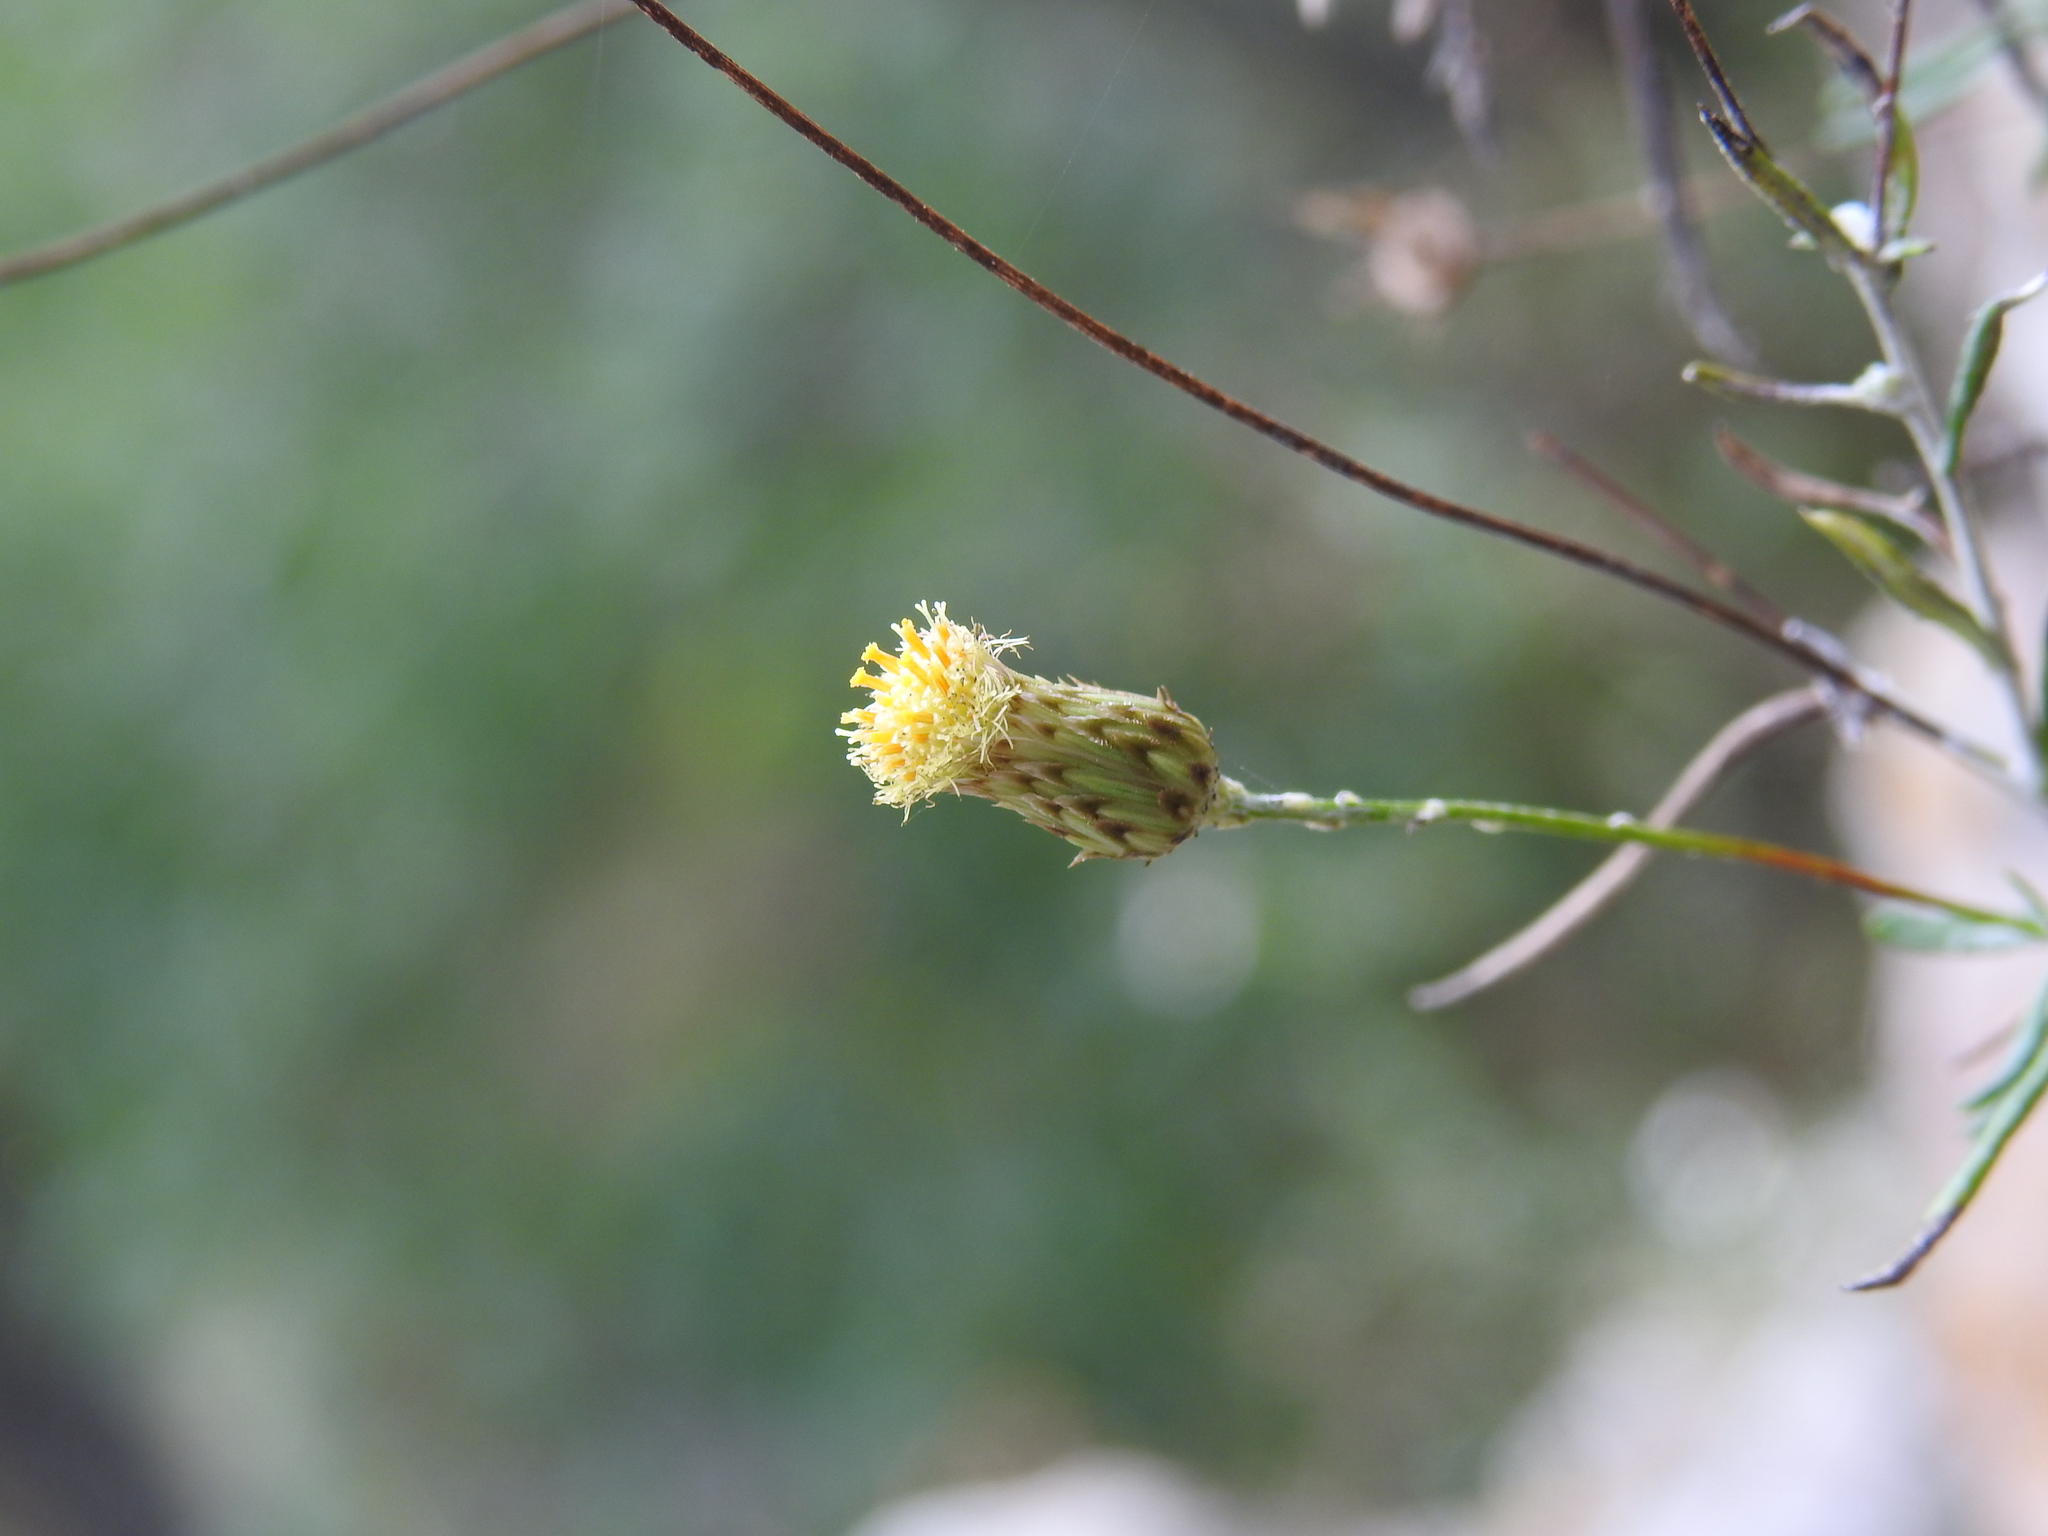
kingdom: Plantae
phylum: Tracheophyta
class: Magnoliopsida
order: Asterales
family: Asteraceae
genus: Phagnalon
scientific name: Phagnalon saxatile
